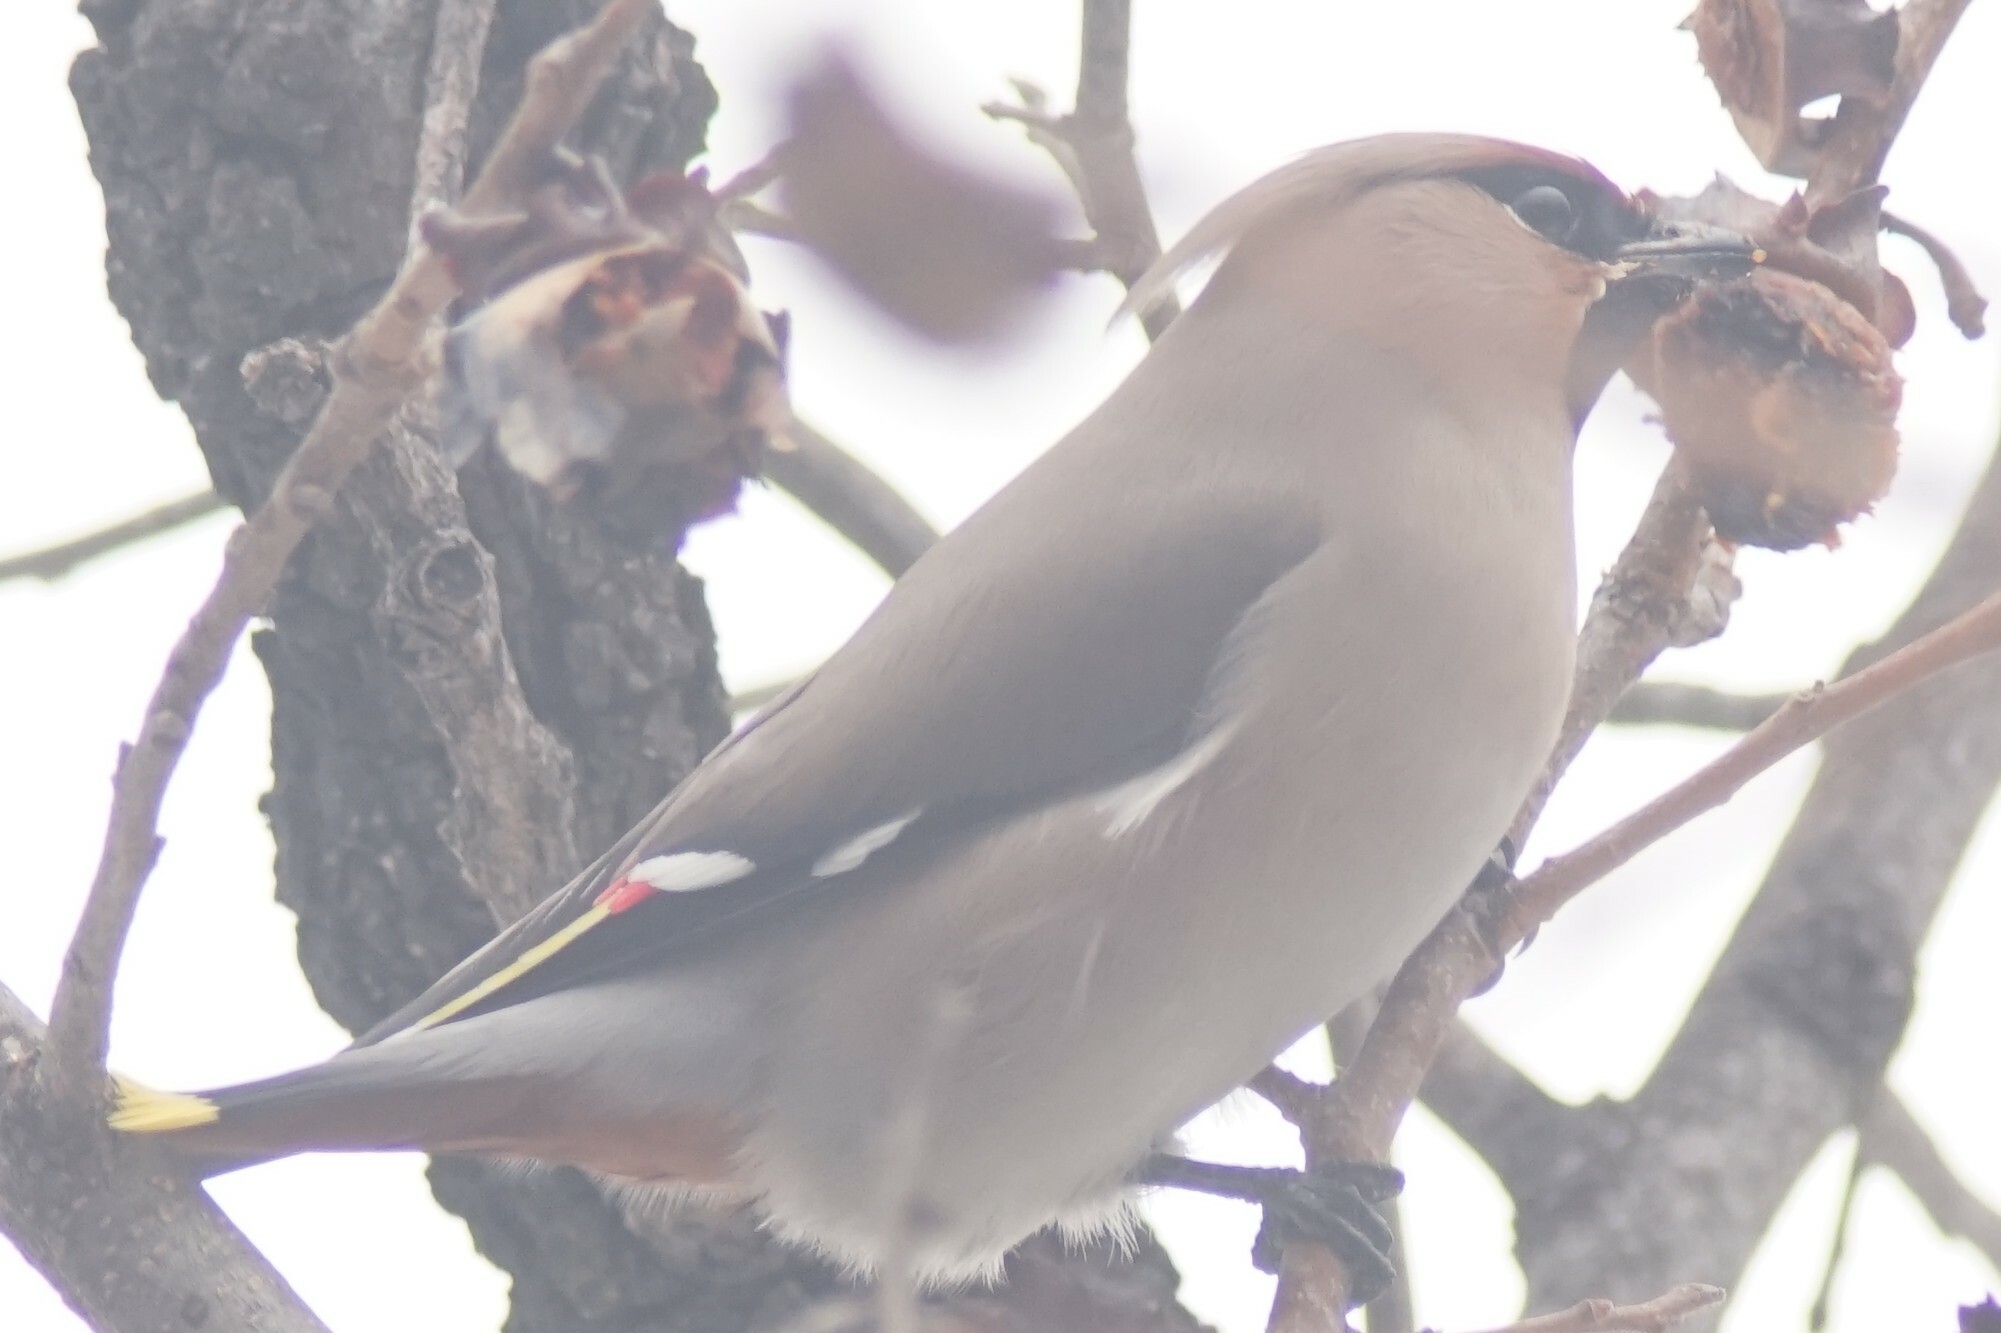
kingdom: Animalia
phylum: Chordata
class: Aves
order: Passeriformes
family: Bombycillidae
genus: Bombycilla
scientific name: Bombycilla garrulus
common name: Bohemian waxwing
